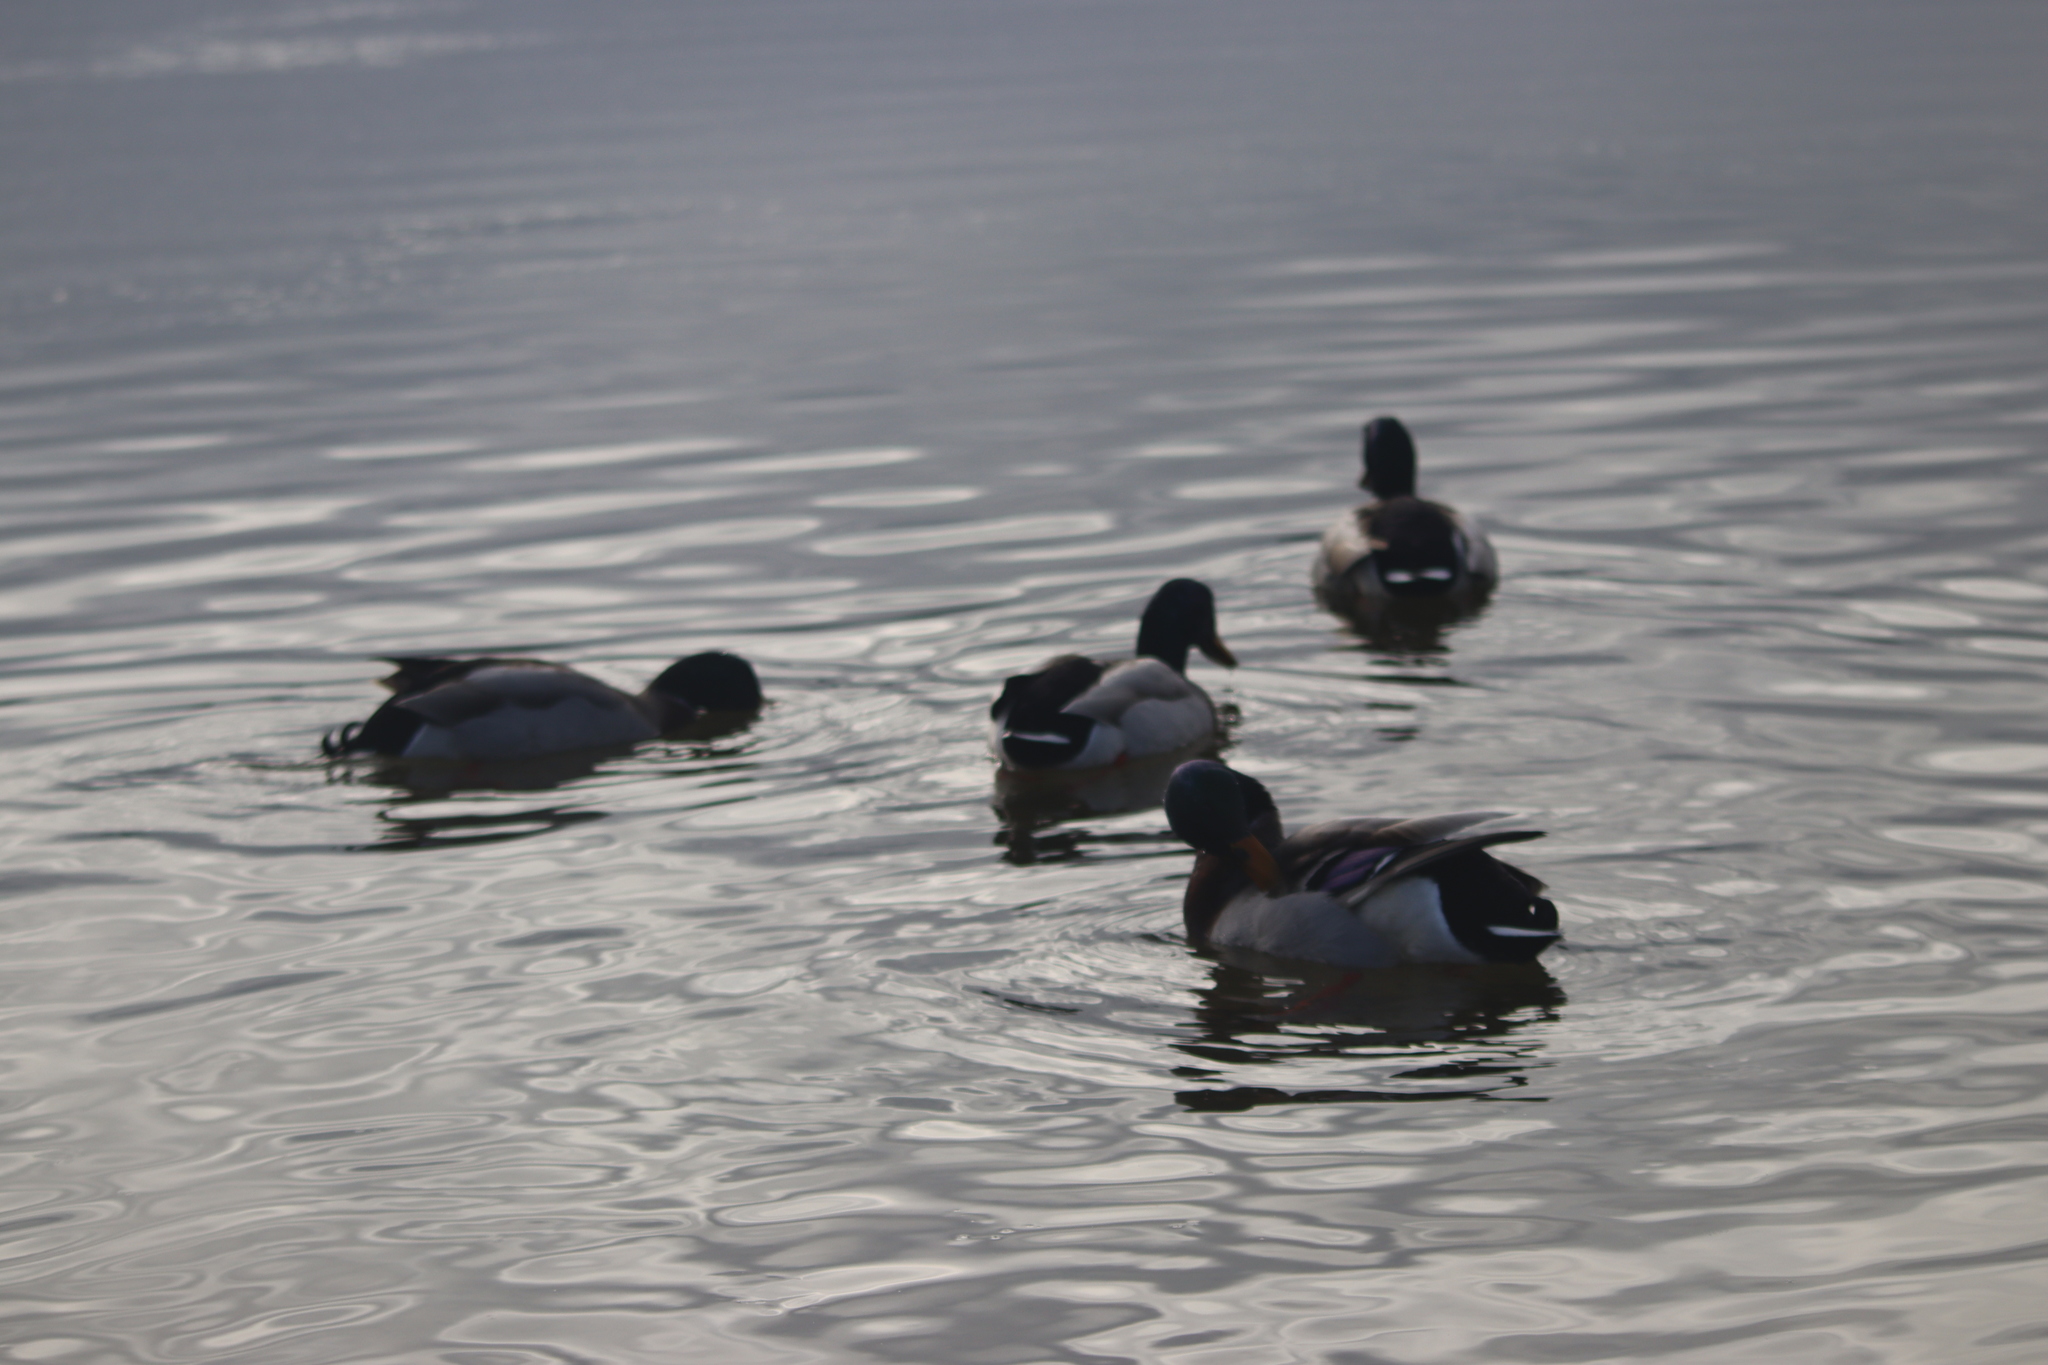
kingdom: Animalia
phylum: Chordata
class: Aves
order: Anseriformes
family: Anatidae
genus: Anas
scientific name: Anas platyrhynchos
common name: Mallard
